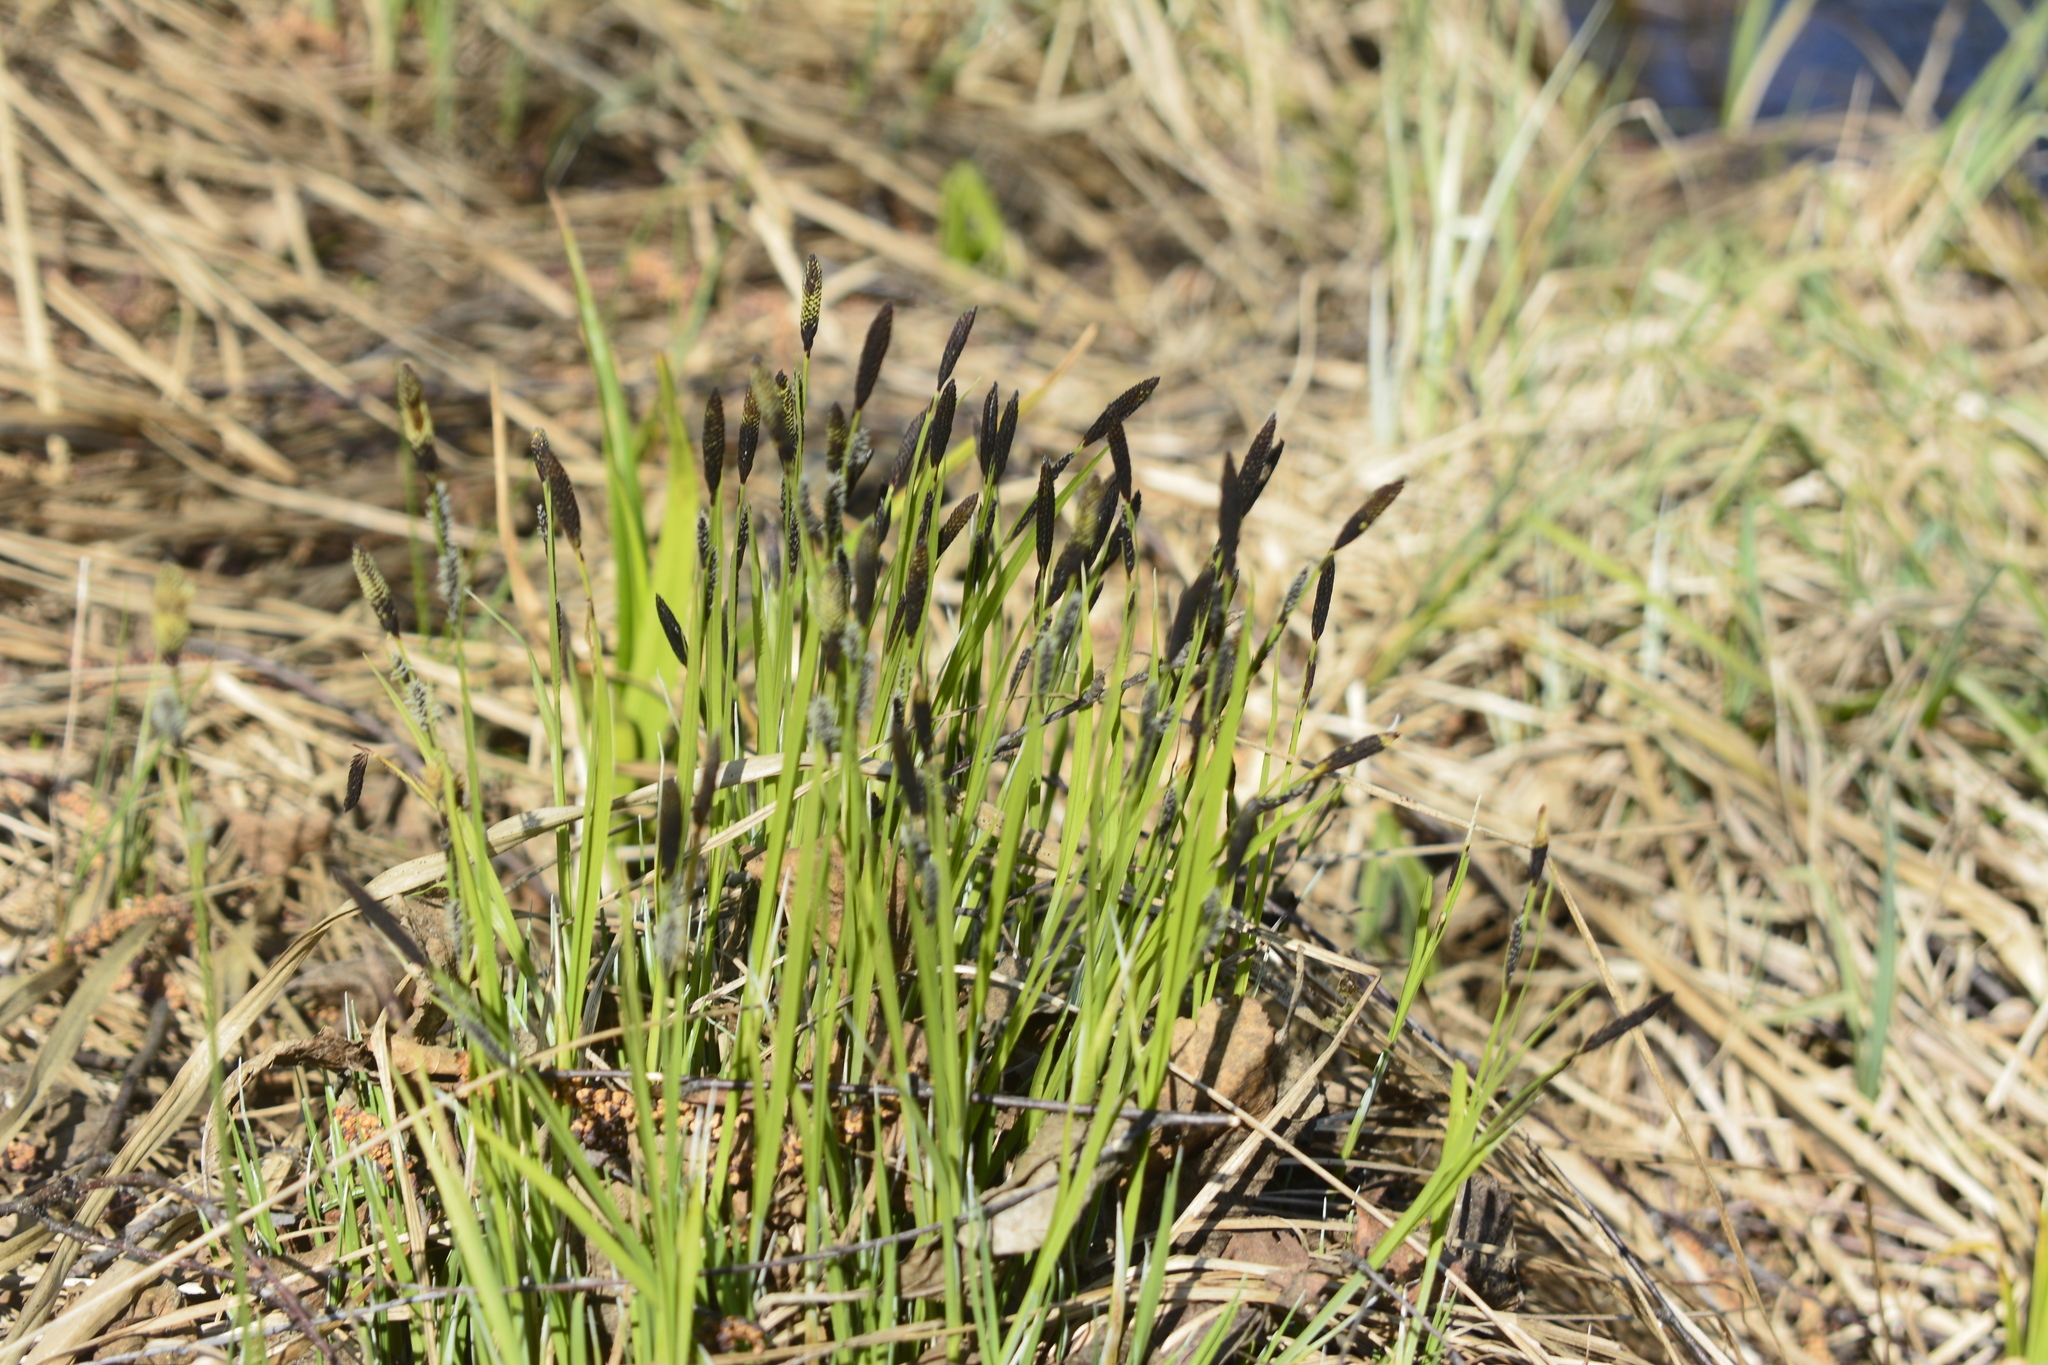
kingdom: Plantae
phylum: Tracheophyta
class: Liliopsida
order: Poales
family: Cyperaceae
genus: Carex
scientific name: Carex cespitosa
